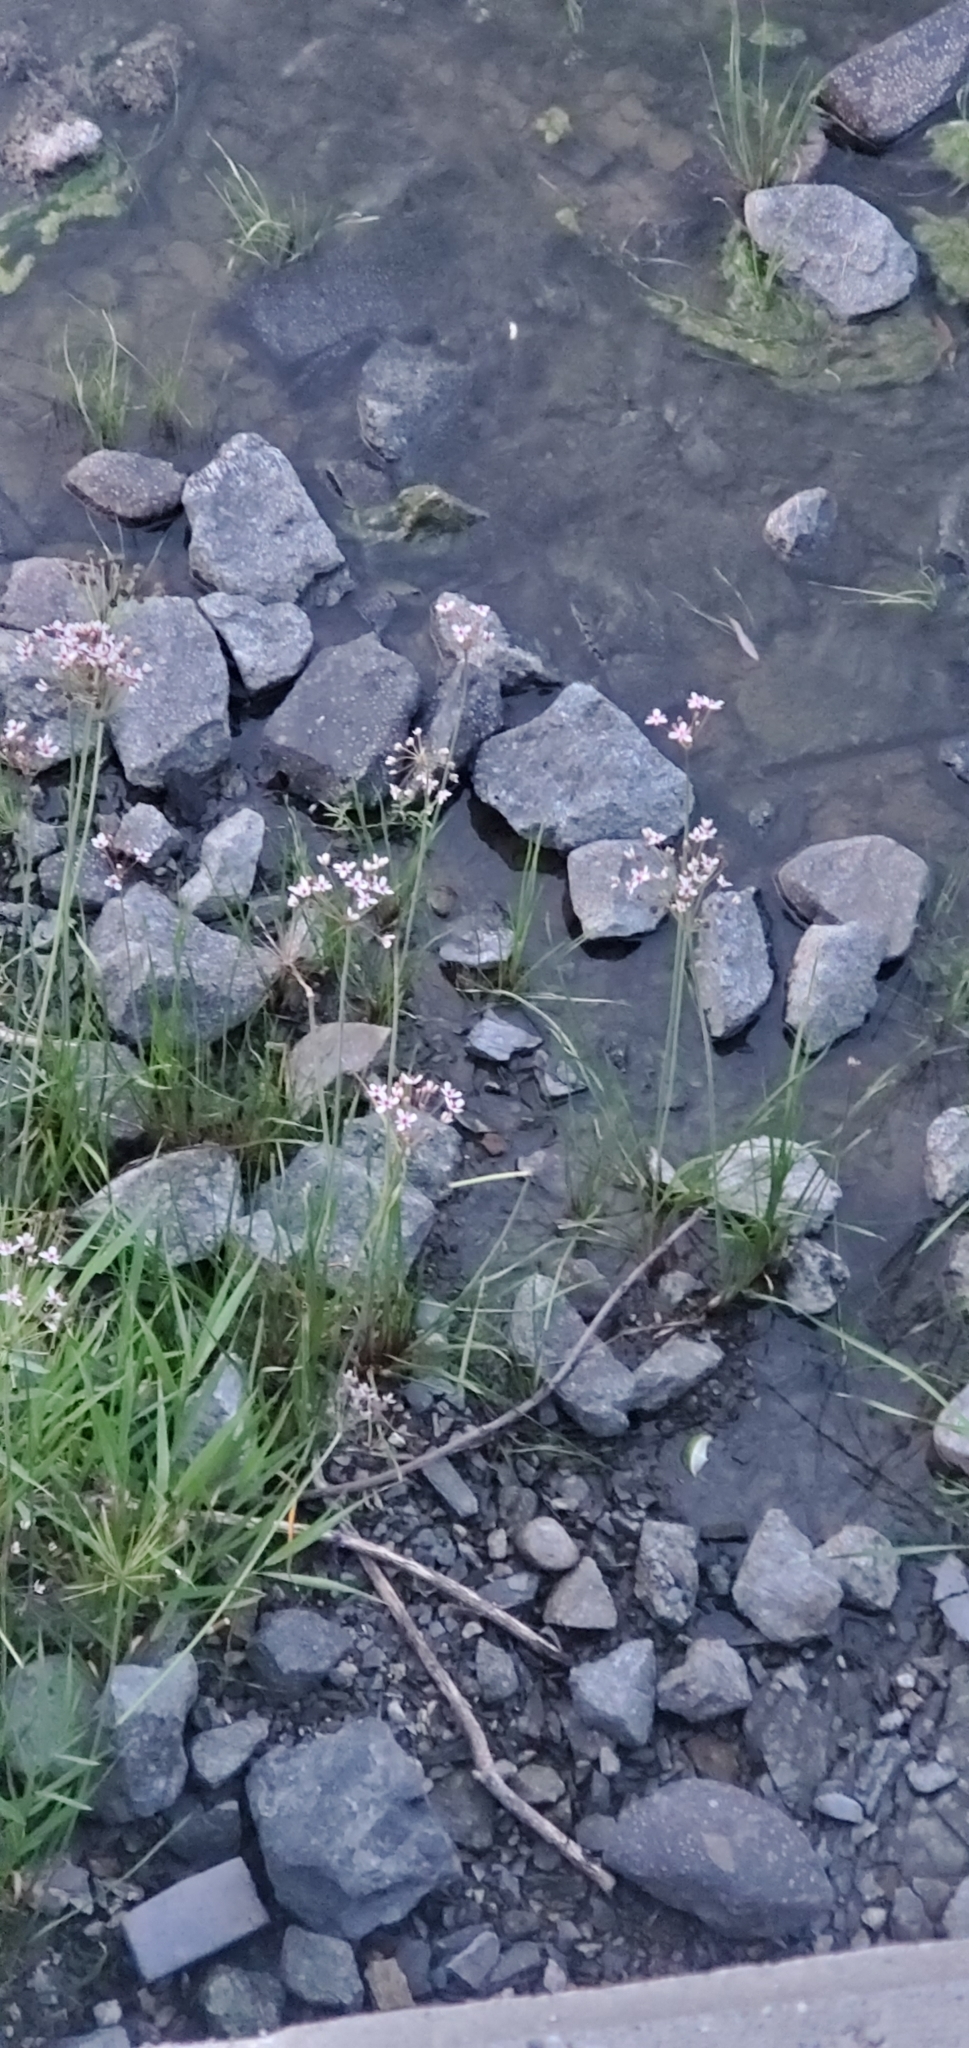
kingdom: Plantae
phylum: Tracheophyta
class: Liliopsida
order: Alismatales
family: Butomaceae
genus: Butomus
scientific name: Butomus umbellatus
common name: Flowering-rush
